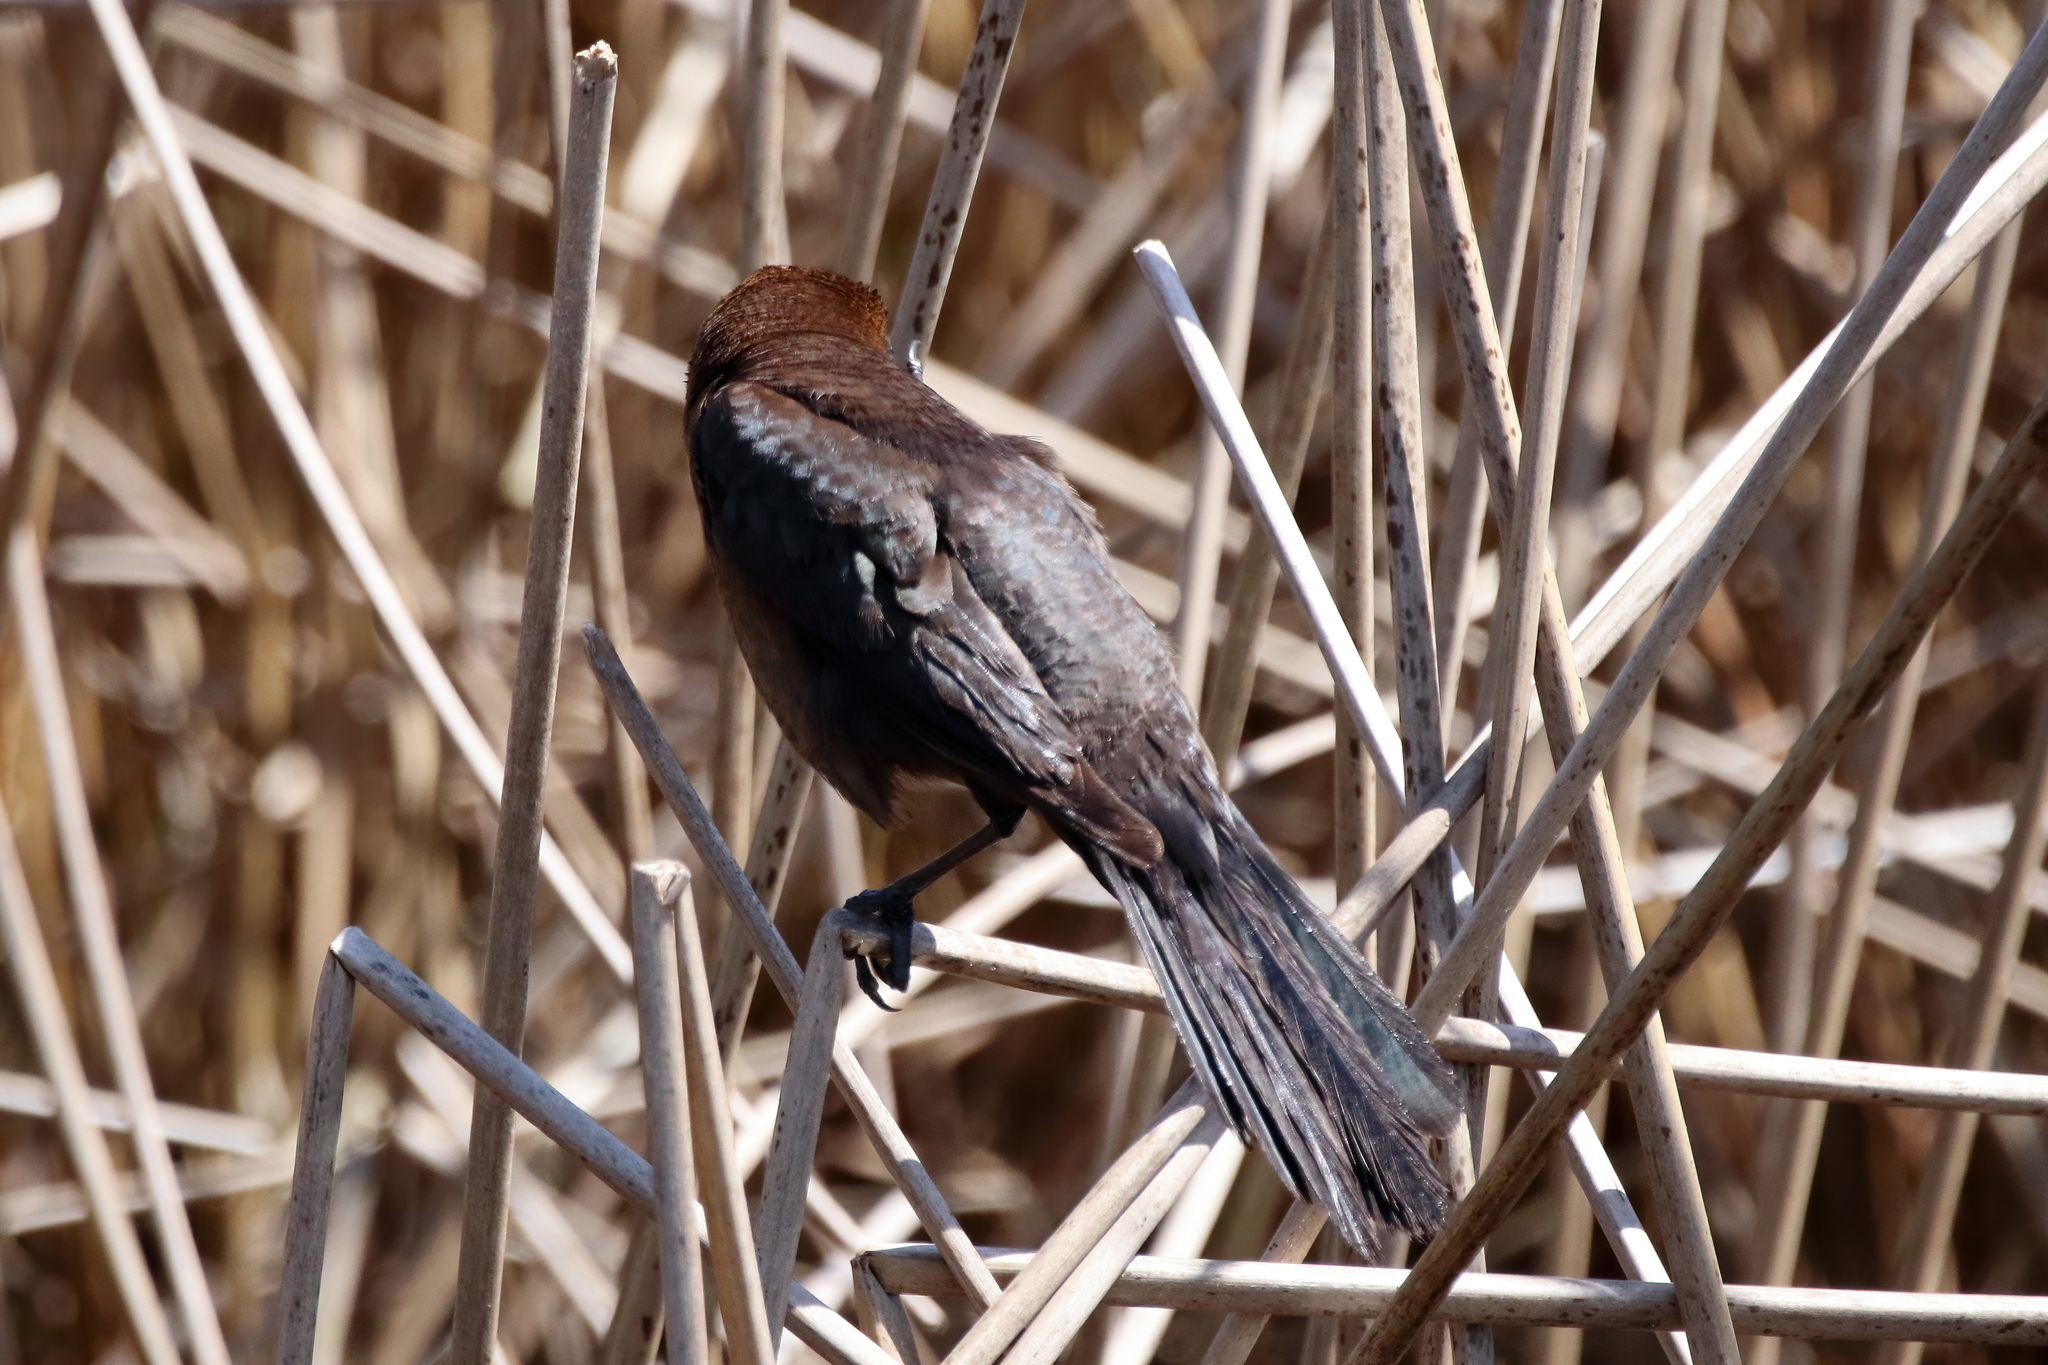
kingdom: Animalia
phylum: Chordata
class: Aves
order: Passeriformes
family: Icteridae
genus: Quiscalus
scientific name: Quiscalus major
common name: Boat-tailed grackle
